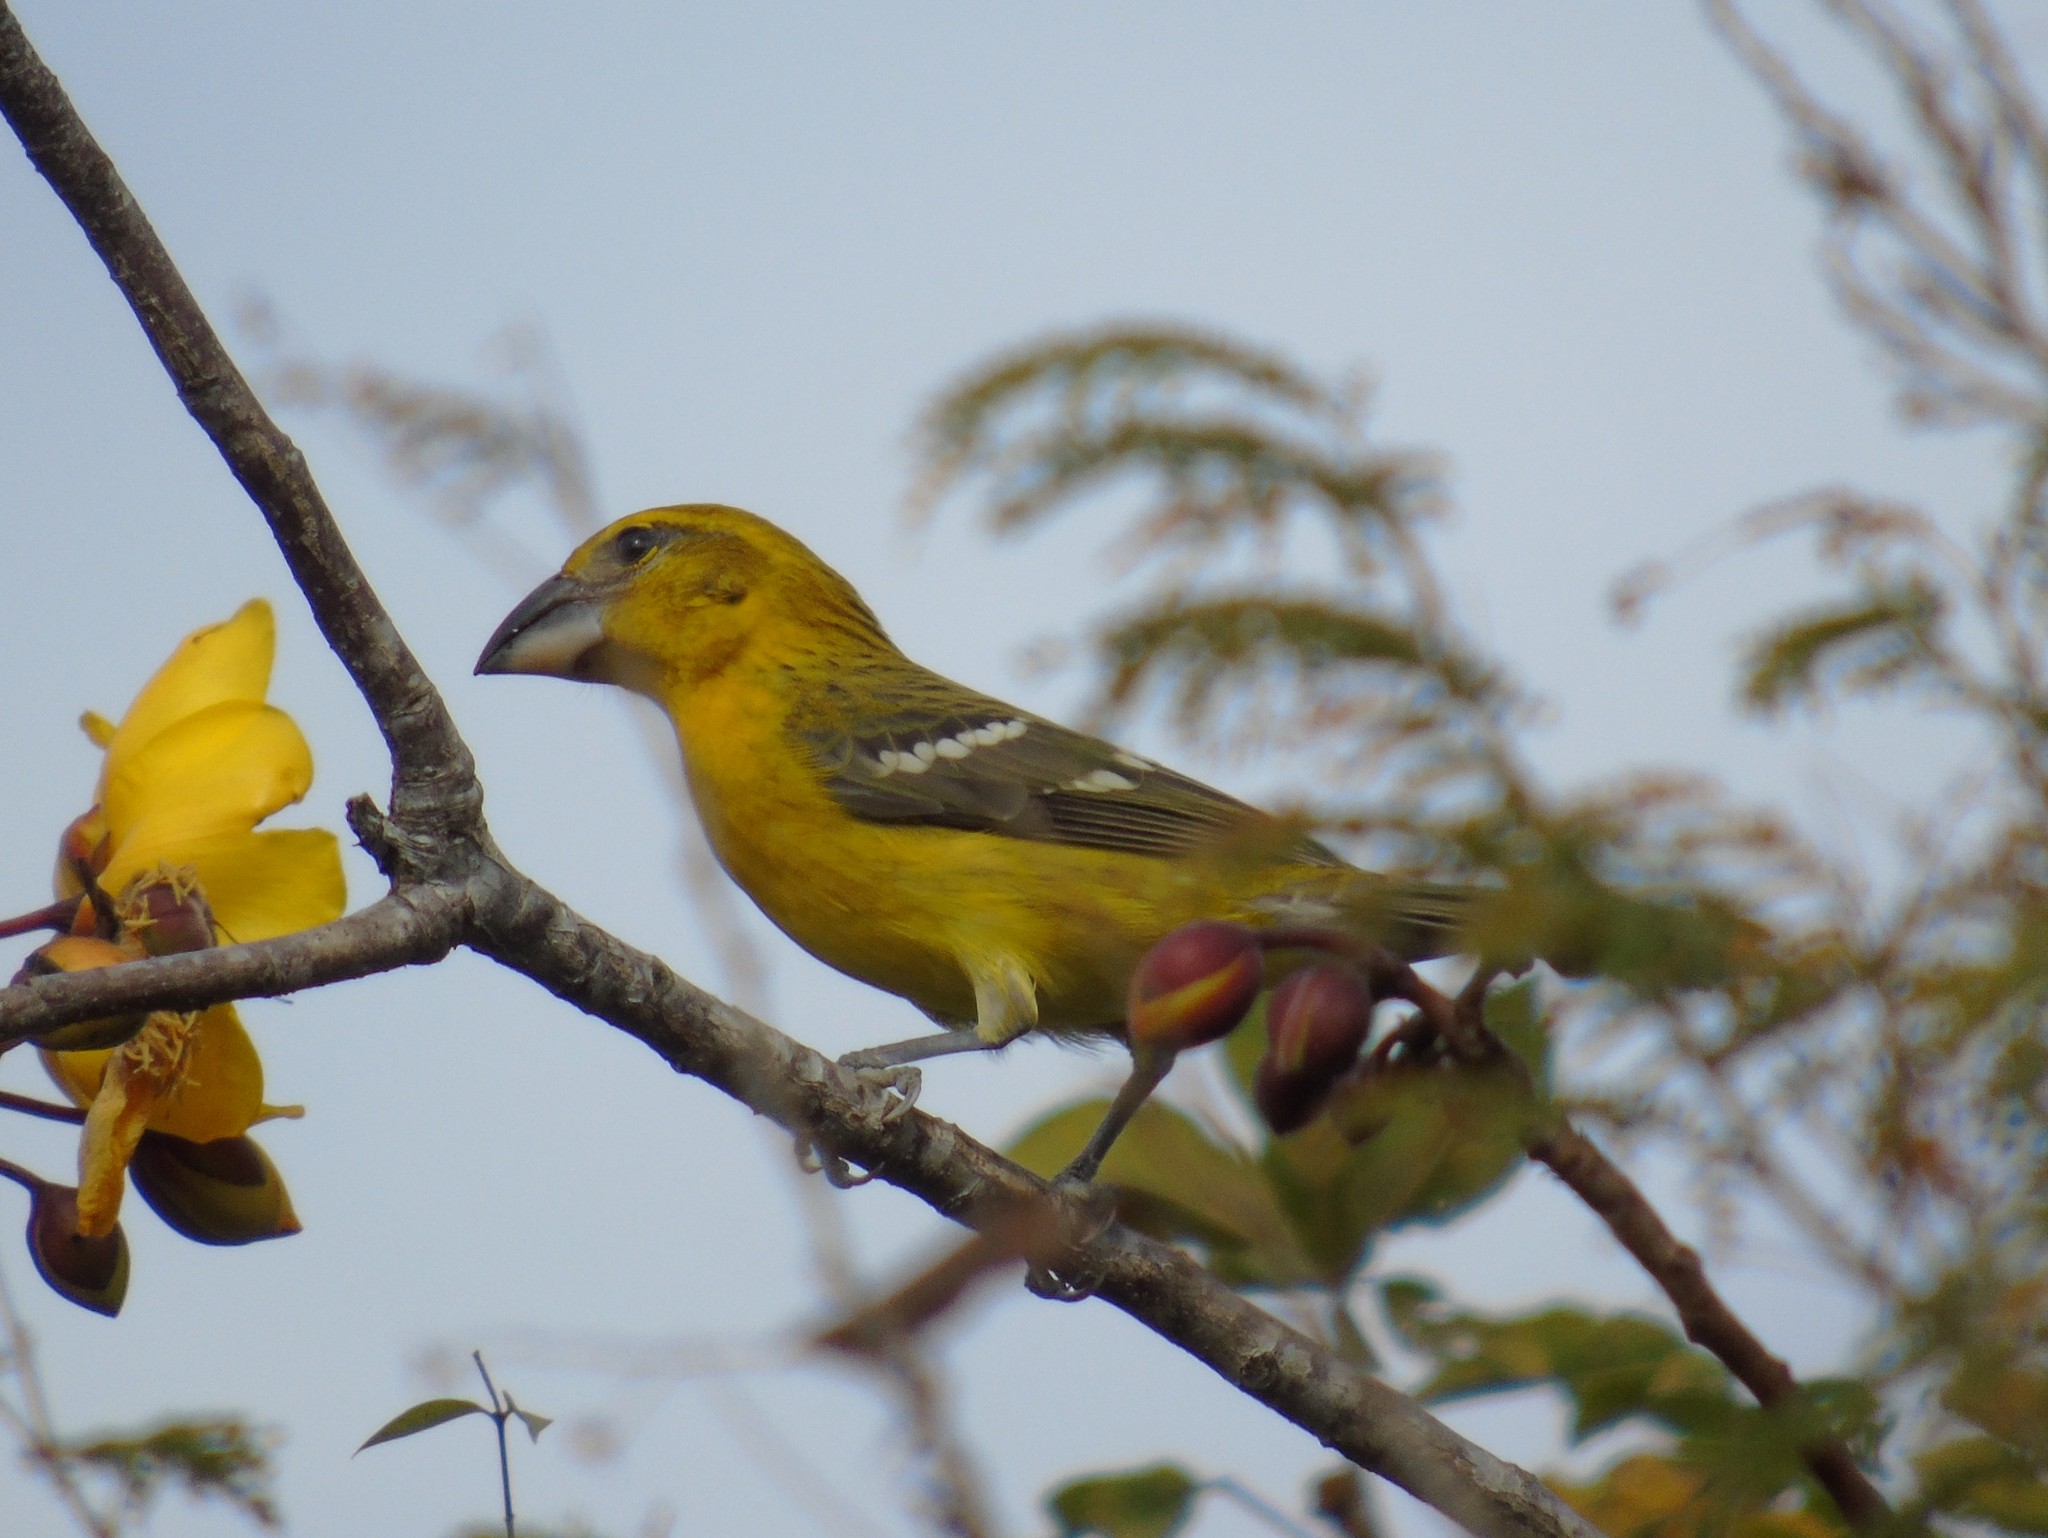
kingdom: Animalia
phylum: Chordata
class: Aves
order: Passeriformes
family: Cardinalidae
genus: Pheucticus
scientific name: Pheucticus chrysopeplus
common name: Yellow grosbeak
